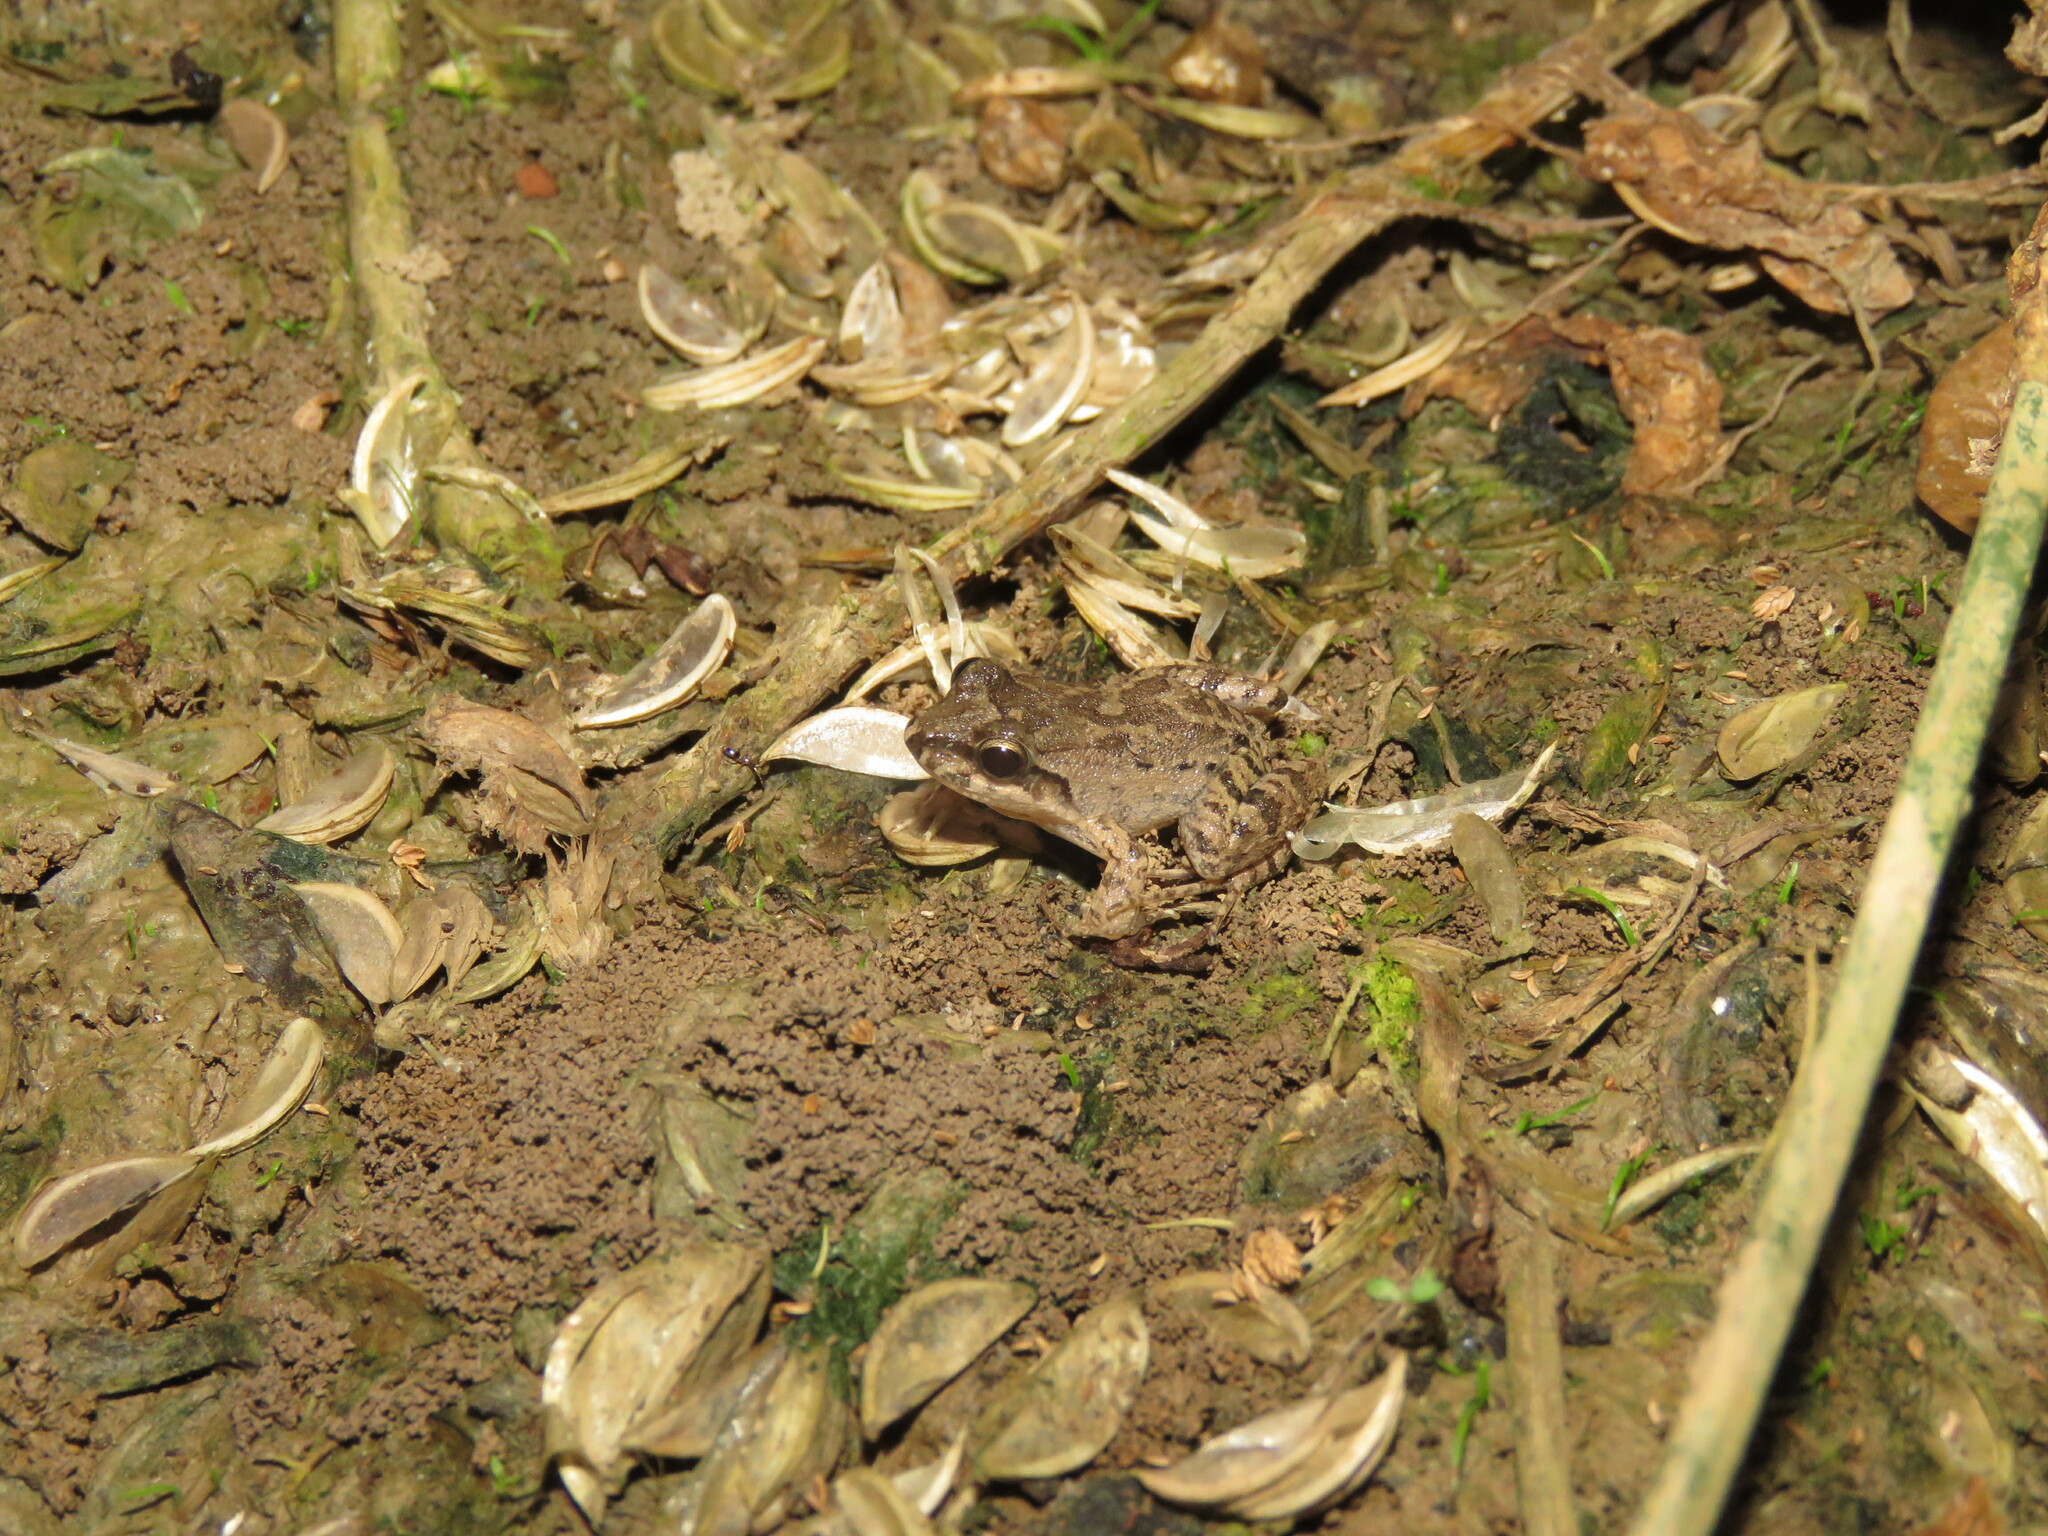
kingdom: Animalia
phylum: Chordata
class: Amphibia
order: Anura
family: Leptodactylidae
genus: Leptodactylus
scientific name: Leptodactylus leptodactyloides
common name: Common thin-toed frog
